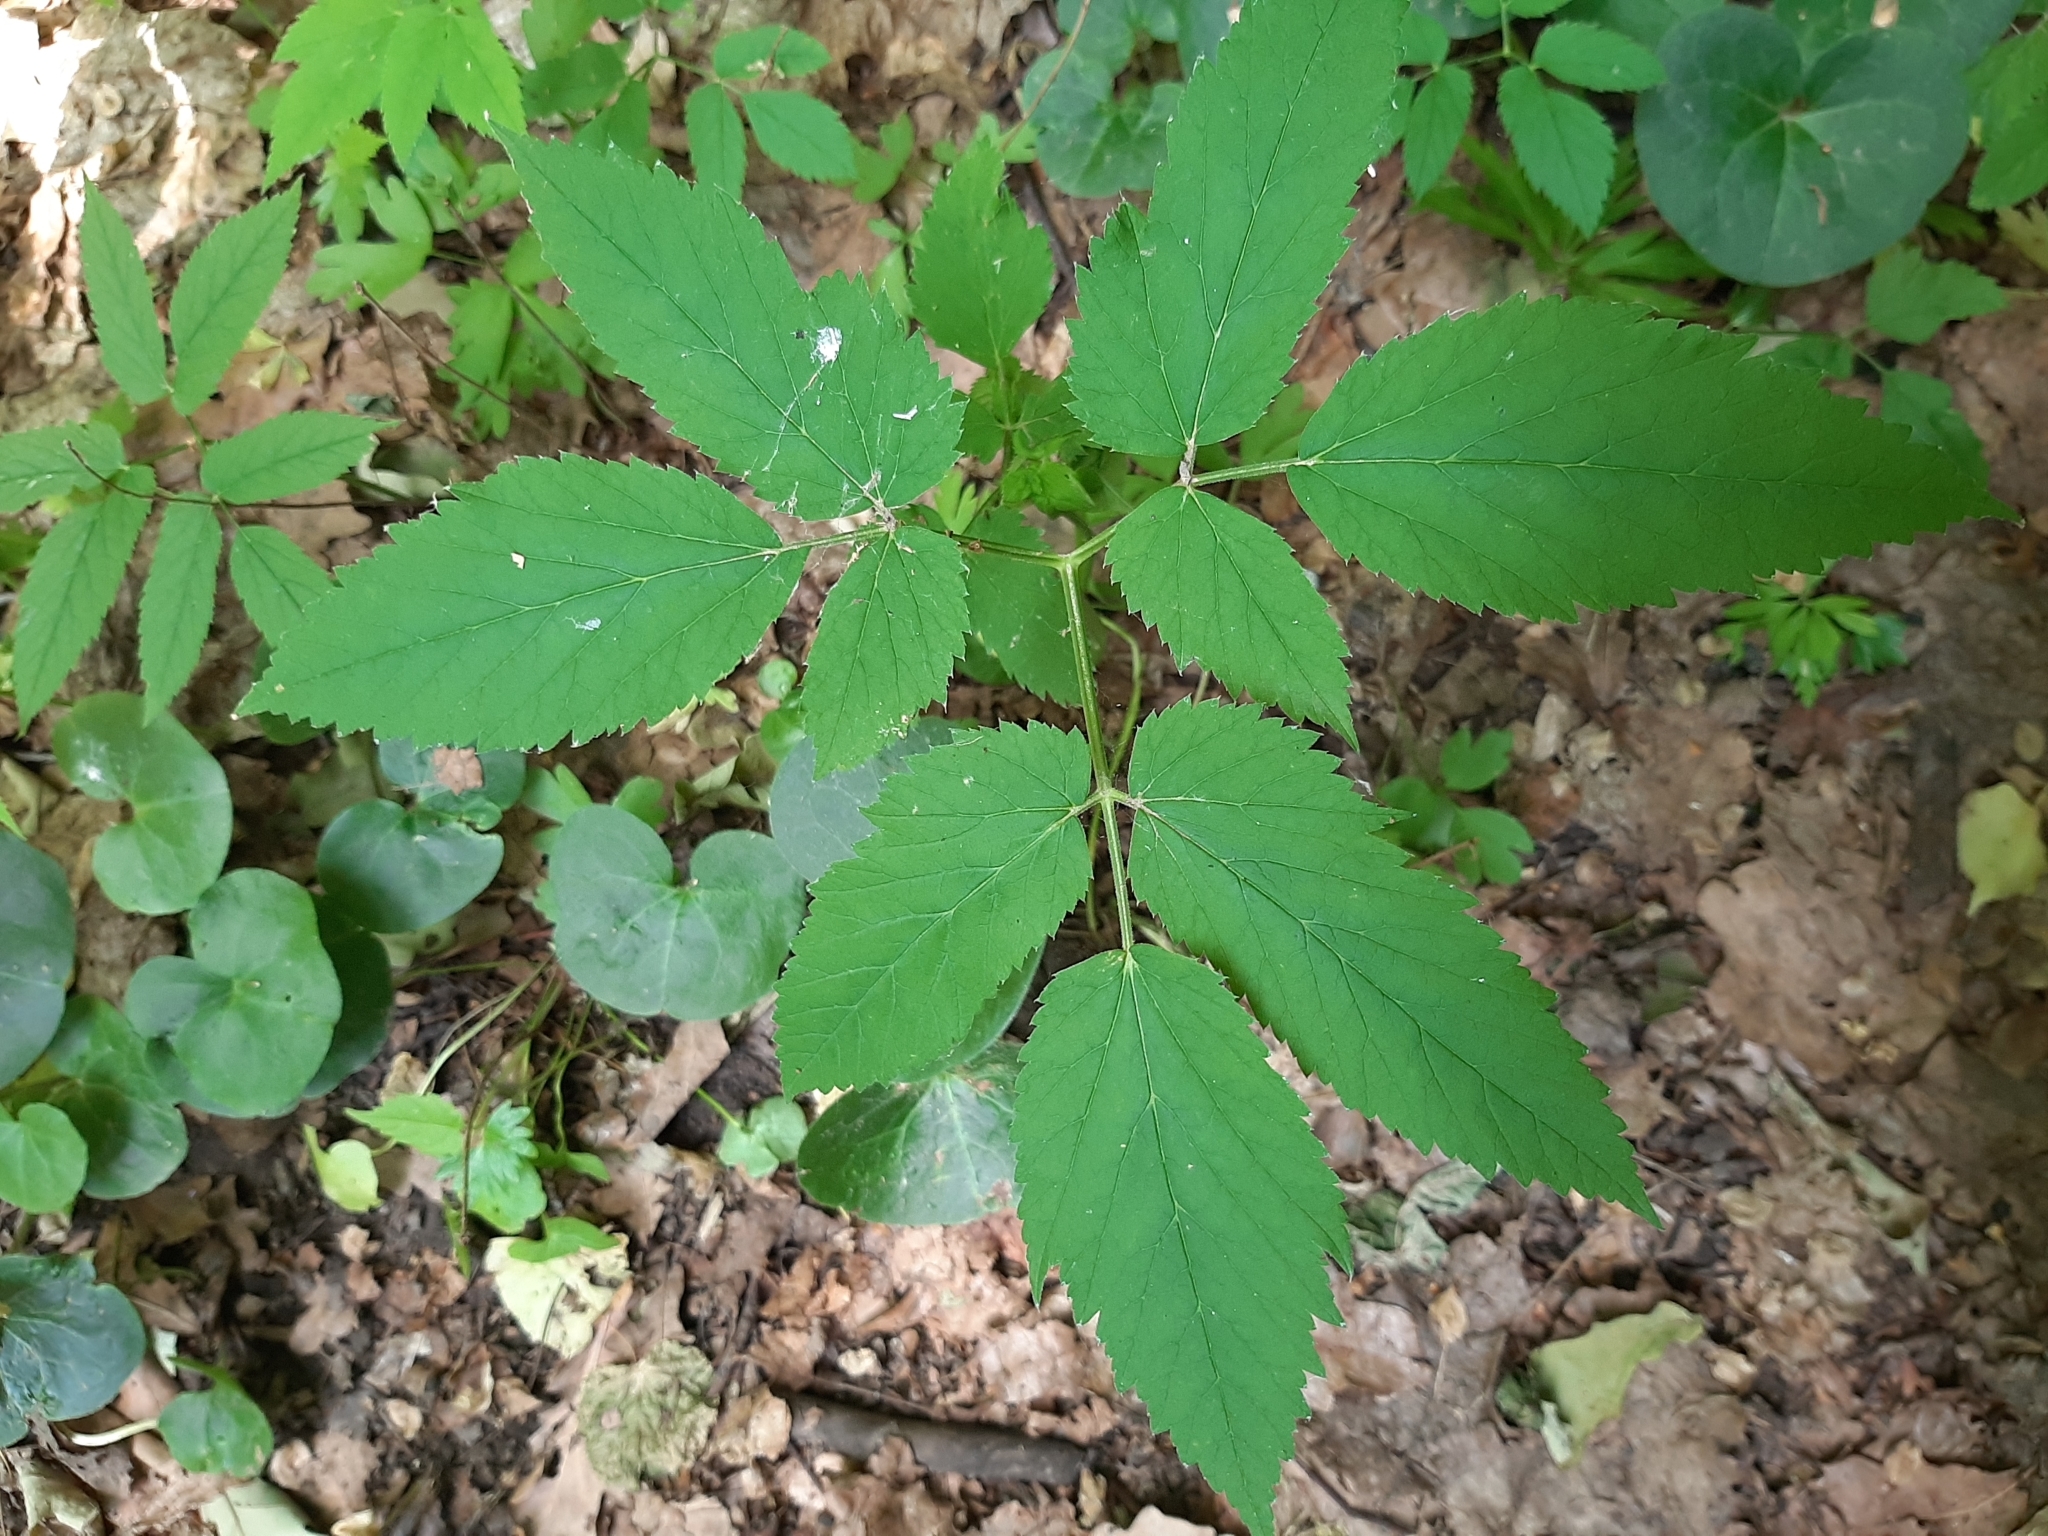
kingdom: Plantae
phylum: Tracheophyta
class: Magnoliopsida
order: Apiales
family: Apiaceae
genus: Aegopodium
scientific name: Aegopodium podagraria
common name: Ground-elder
